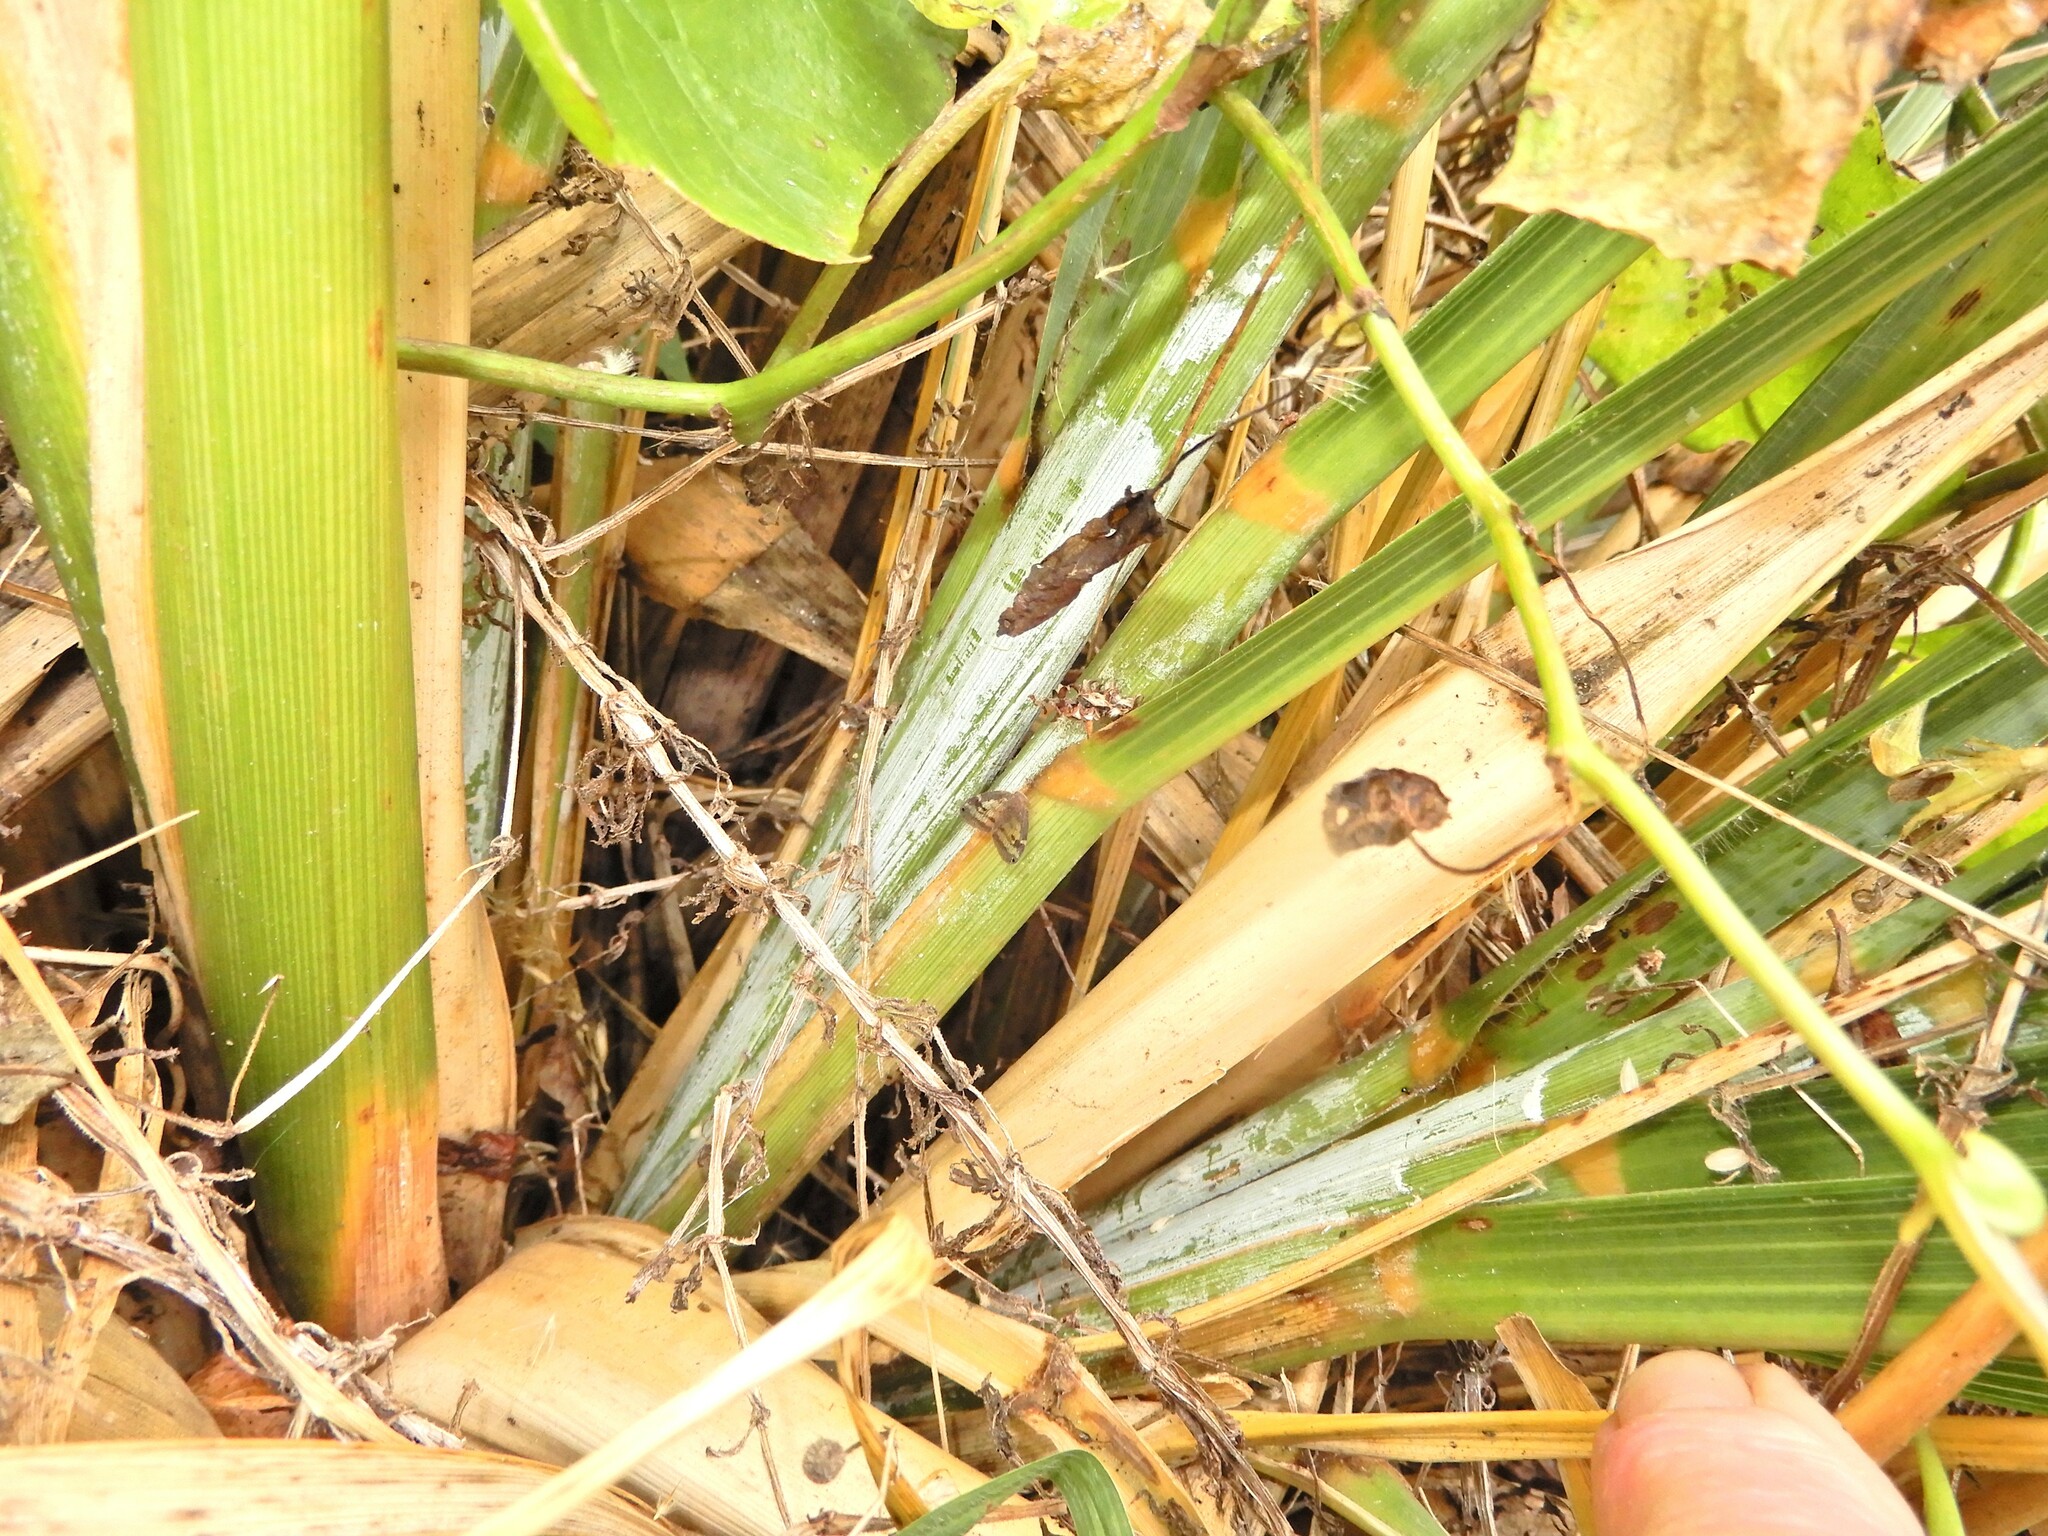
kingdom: Plantae
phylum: Tracheophyta
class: Liliopsida
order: Poales
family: Poaceae
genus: Austroderia
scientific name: Austroderia fulvida
